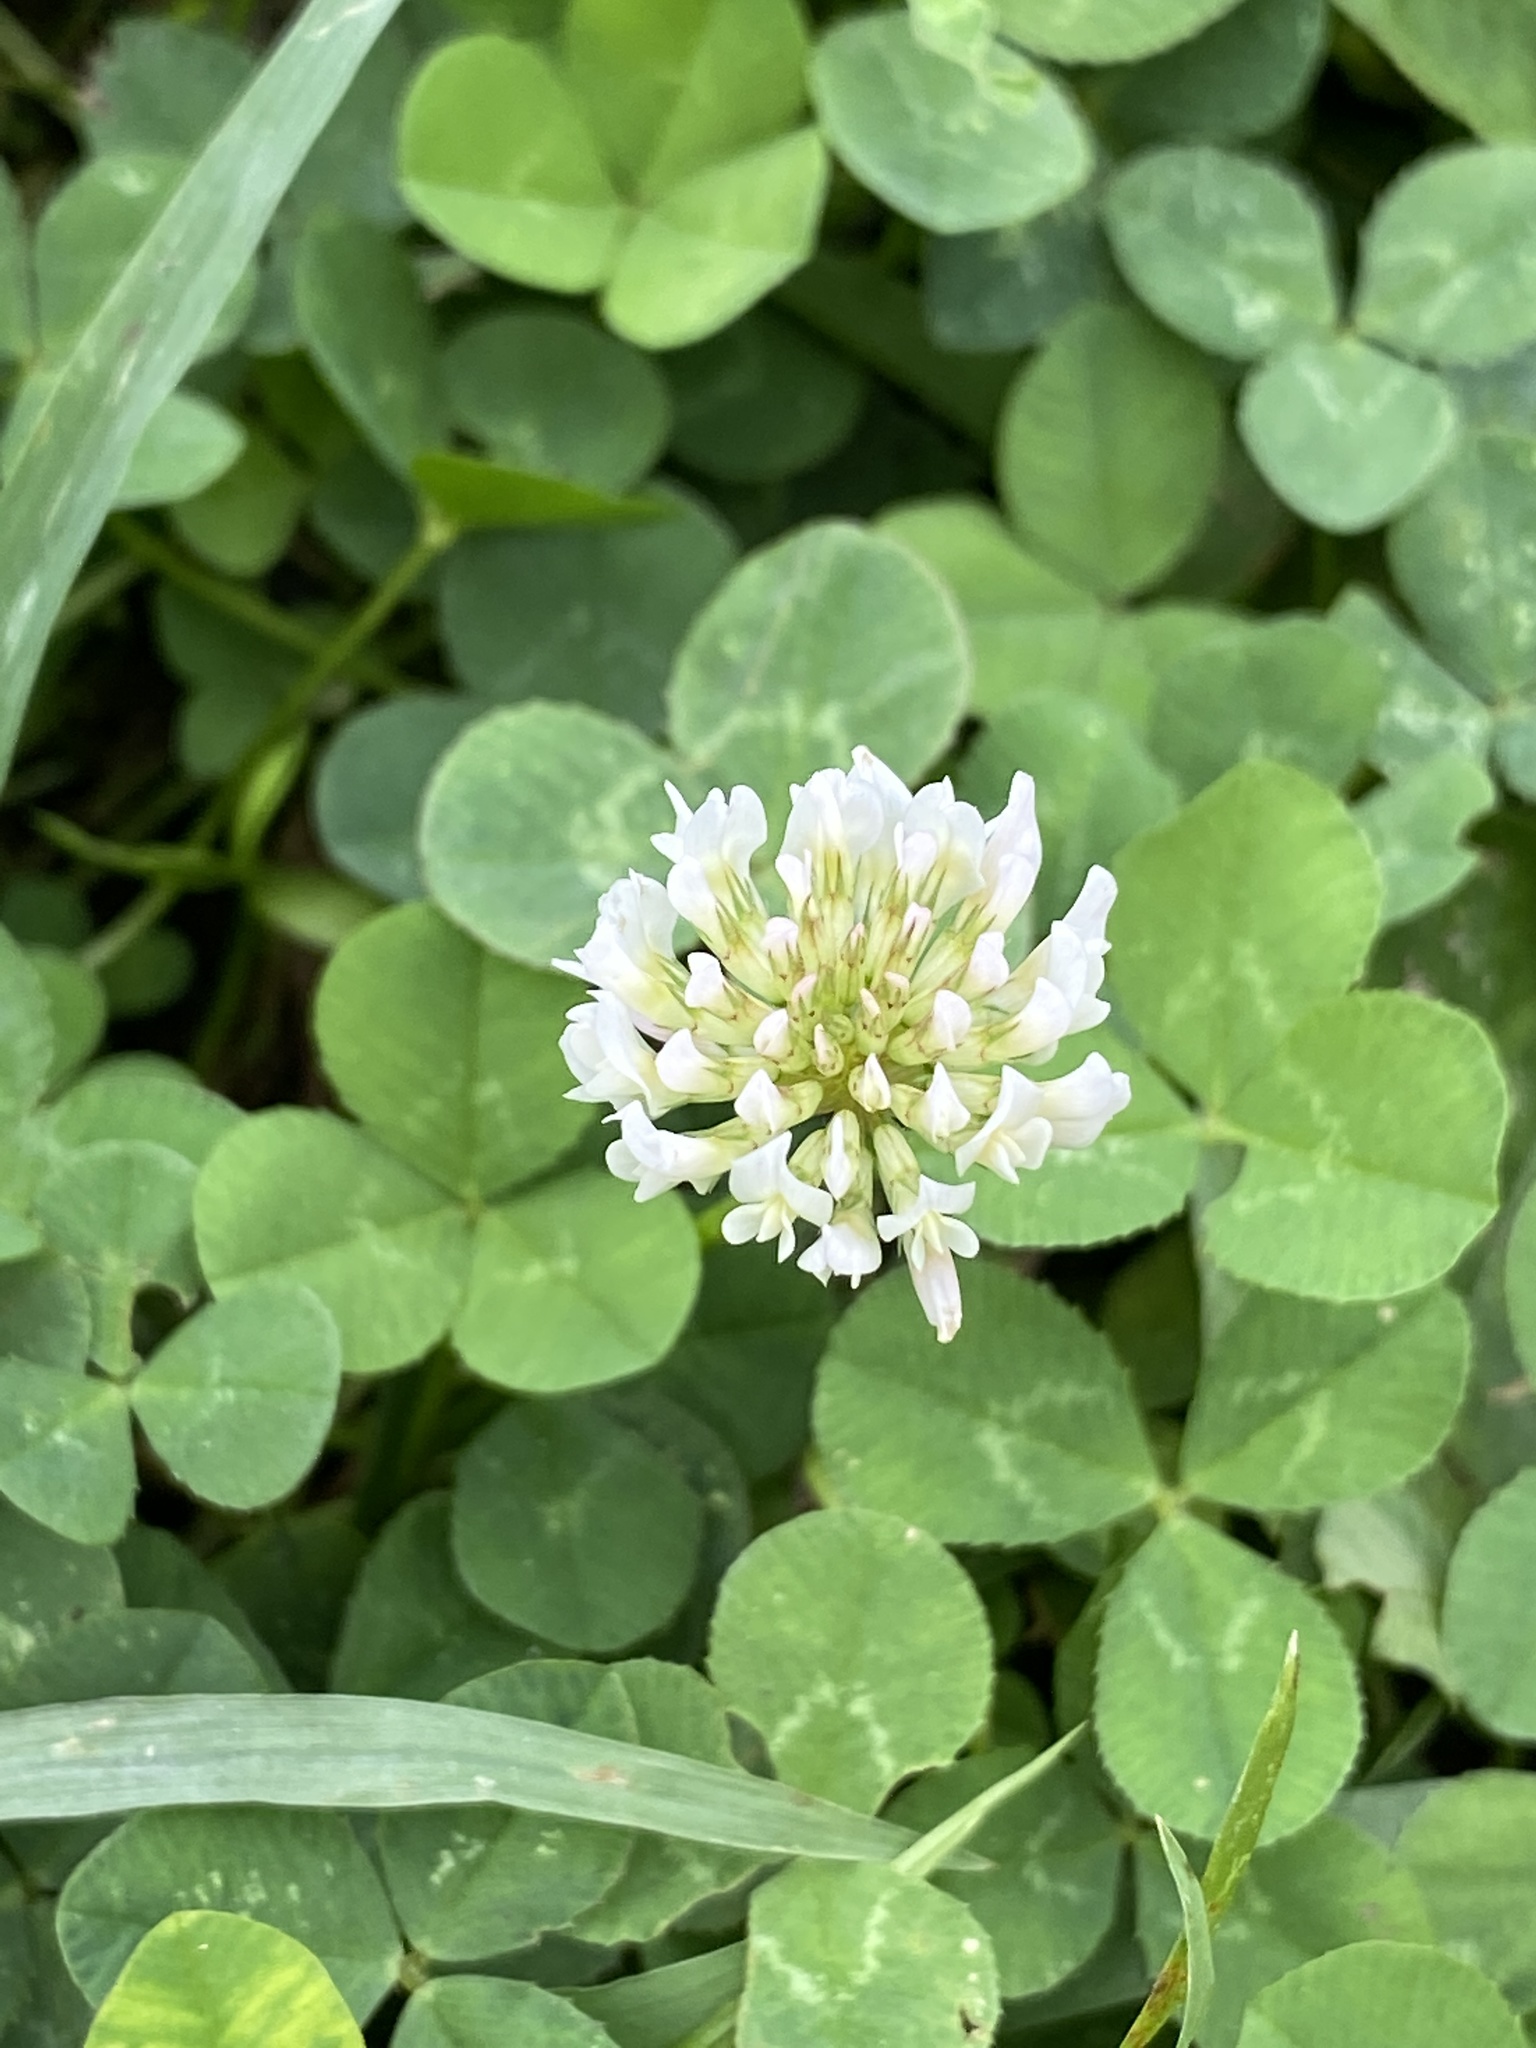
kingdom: Plantae
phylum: Tracheophyta
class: Magnoliopsida
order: Fabales
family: Fabaceae
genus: Trifolium
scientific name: Trifolium repens
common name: White clover
